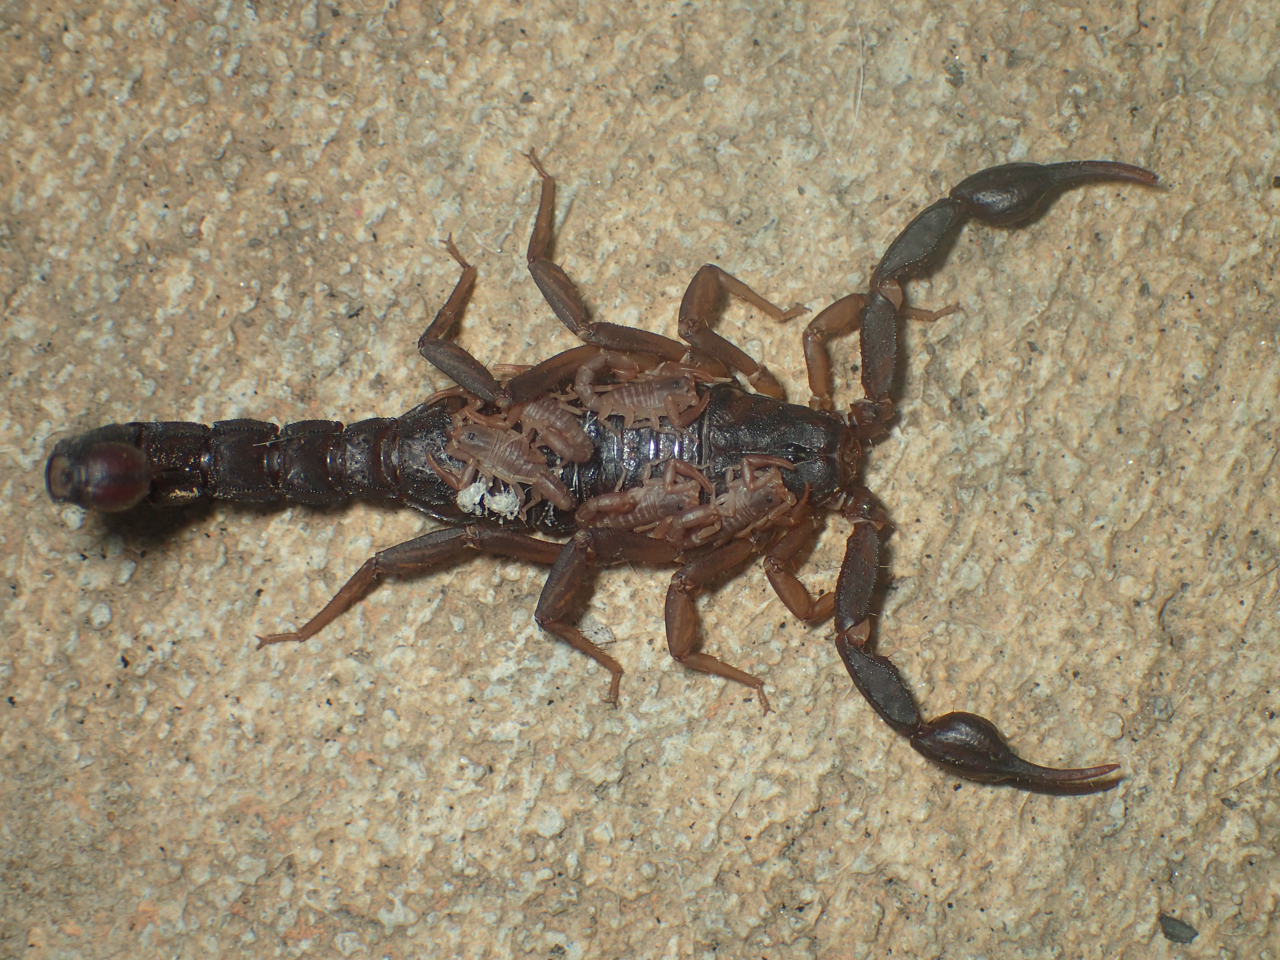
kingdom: Animalia
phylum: Arthropoda
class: Arachnida
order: Scorpiones
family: Vaejovidae
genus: Vaejovis
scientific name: Vaejovis carolinianus
